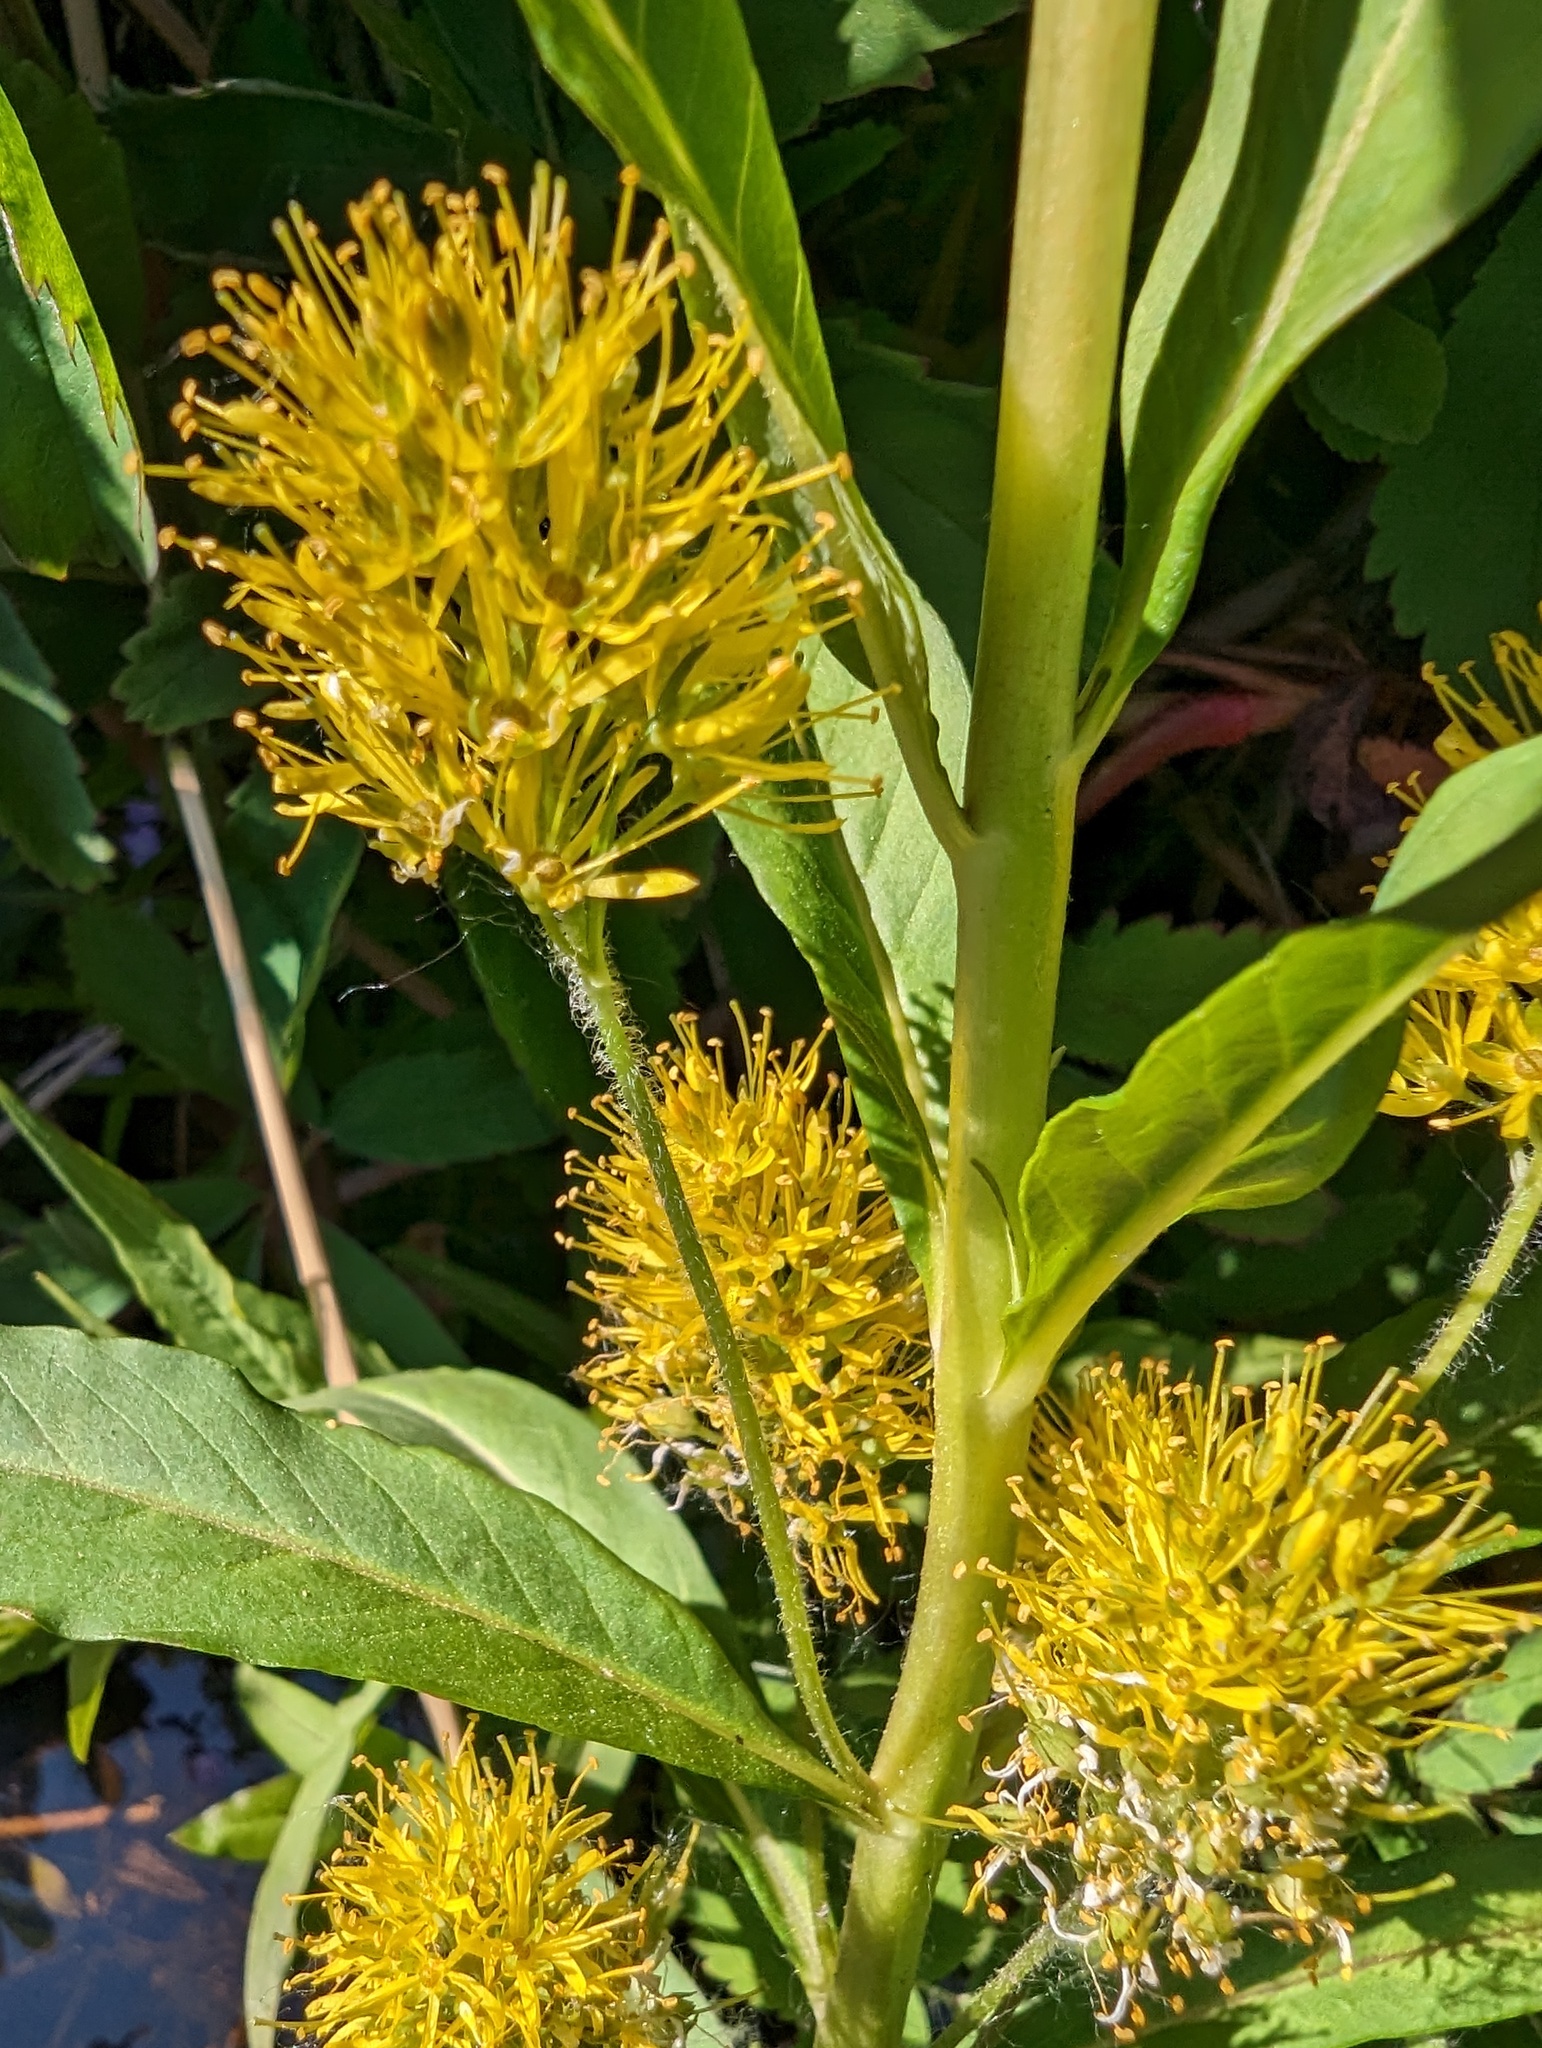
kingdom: Plantae
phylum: Tracheophyta
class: Magnoliopsida
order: Ericales
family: Primulaceae
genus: Lysimachia
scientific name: Lysimachia thyrsiflora
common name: Tufted loosestrife
